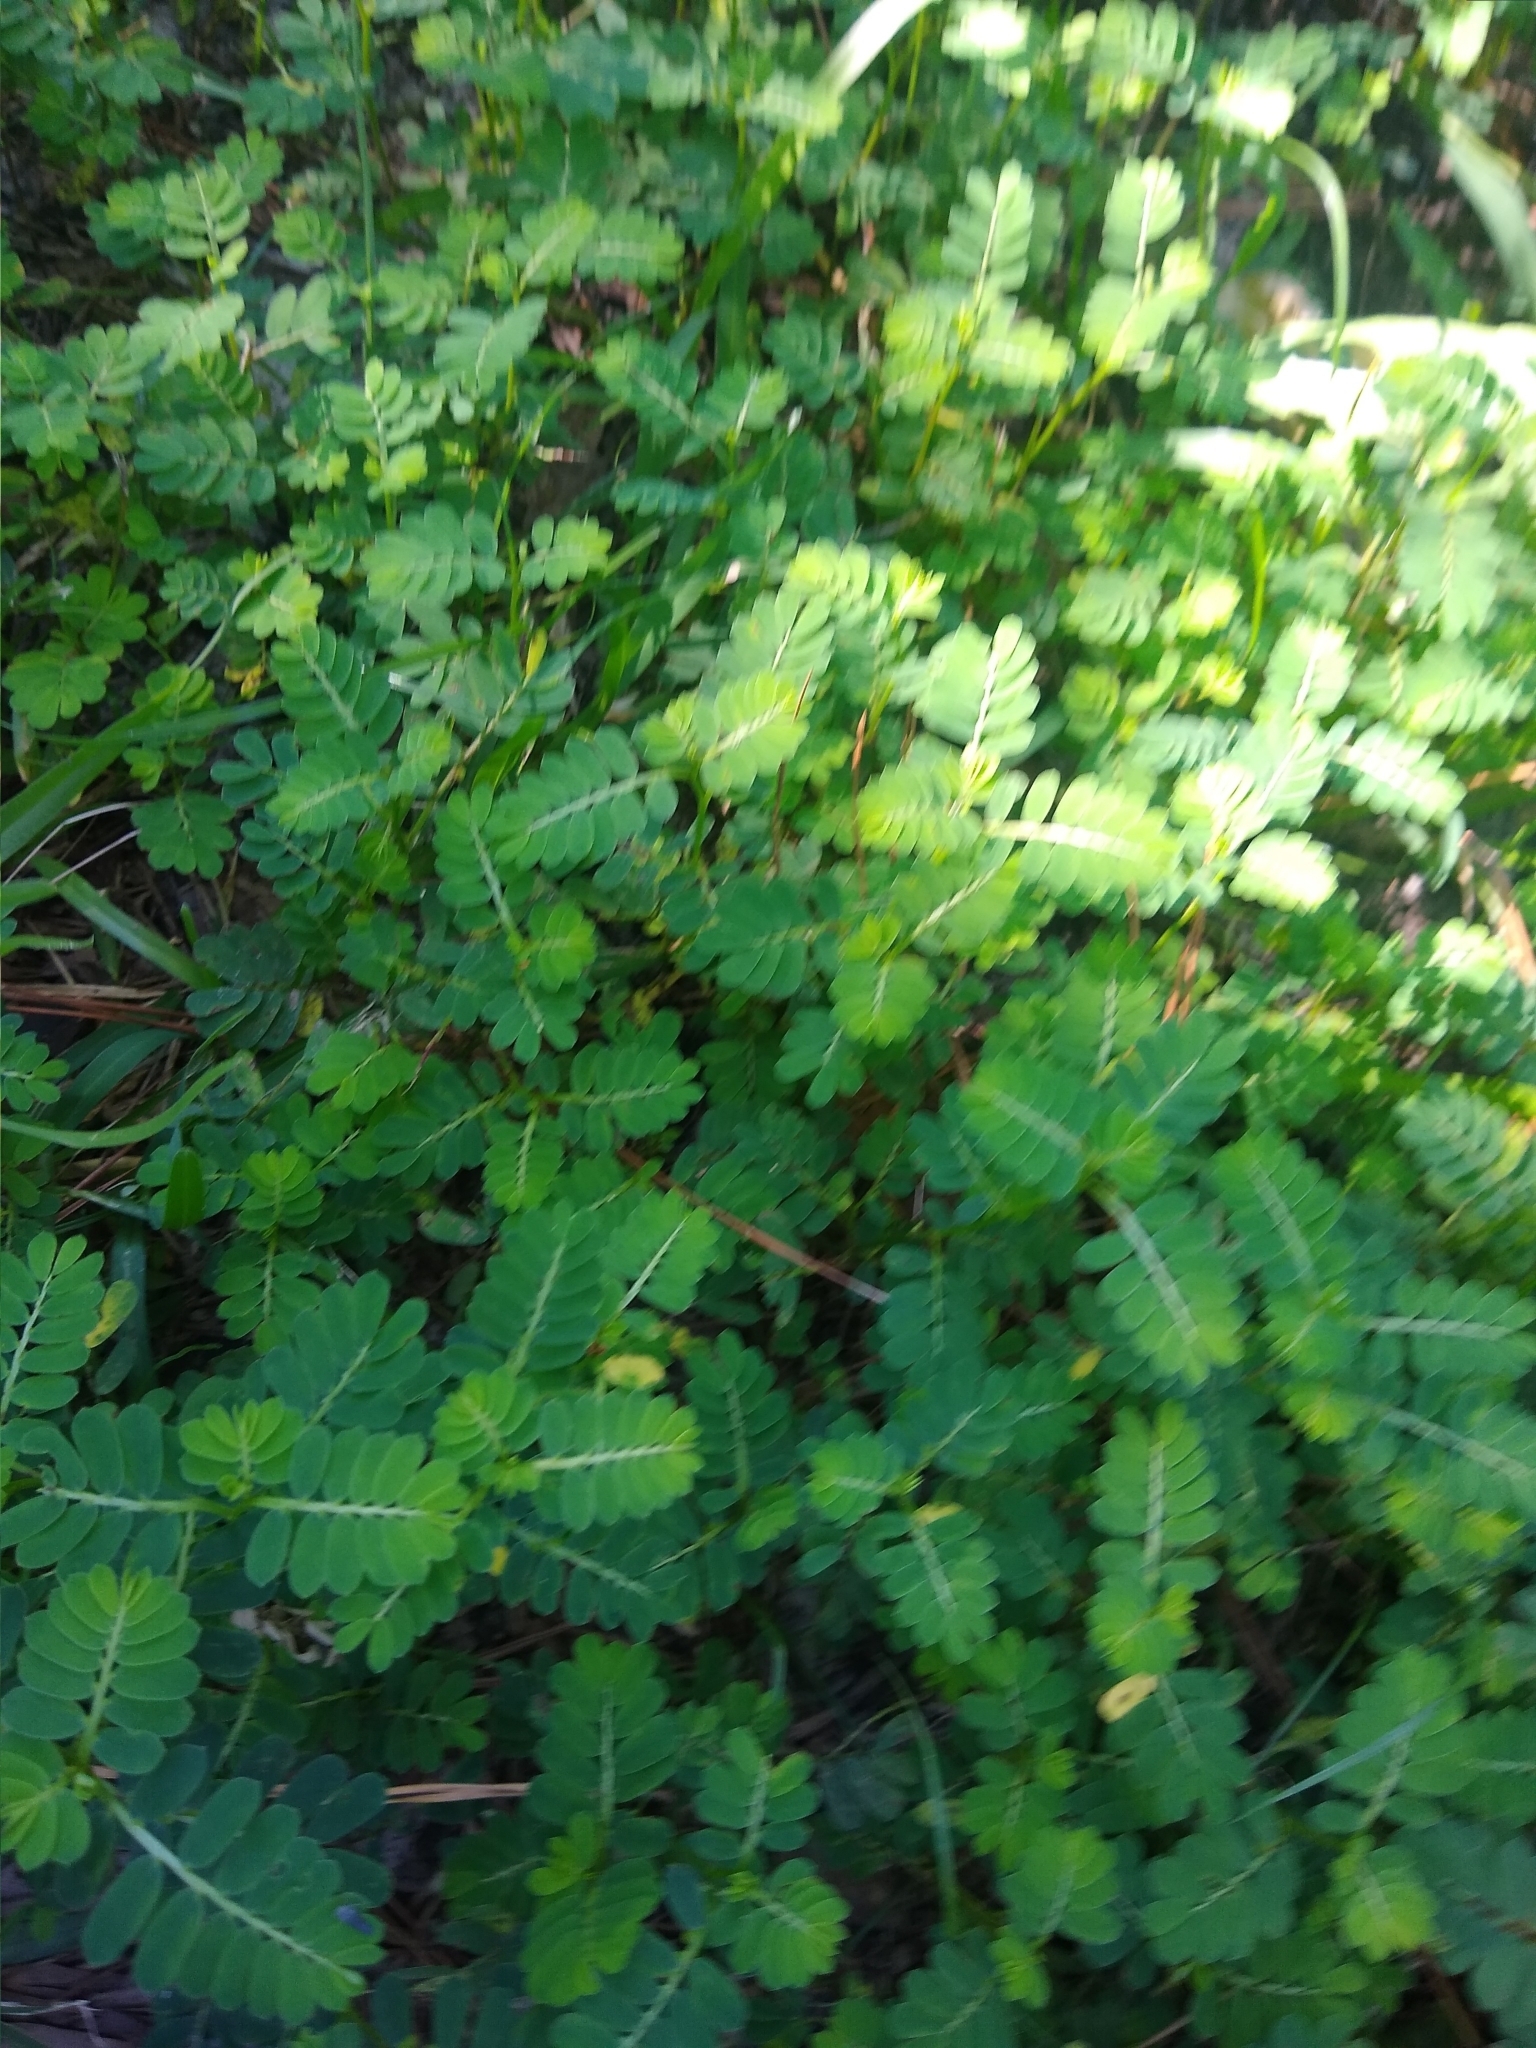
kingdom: Plantae
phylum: Tracheophyta
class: Magnoliopsida
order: Malpighiales
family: Phyllanthaceae
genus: Phyllanthus
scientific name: Phyllanthus urinaria
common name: Chamber bitter
